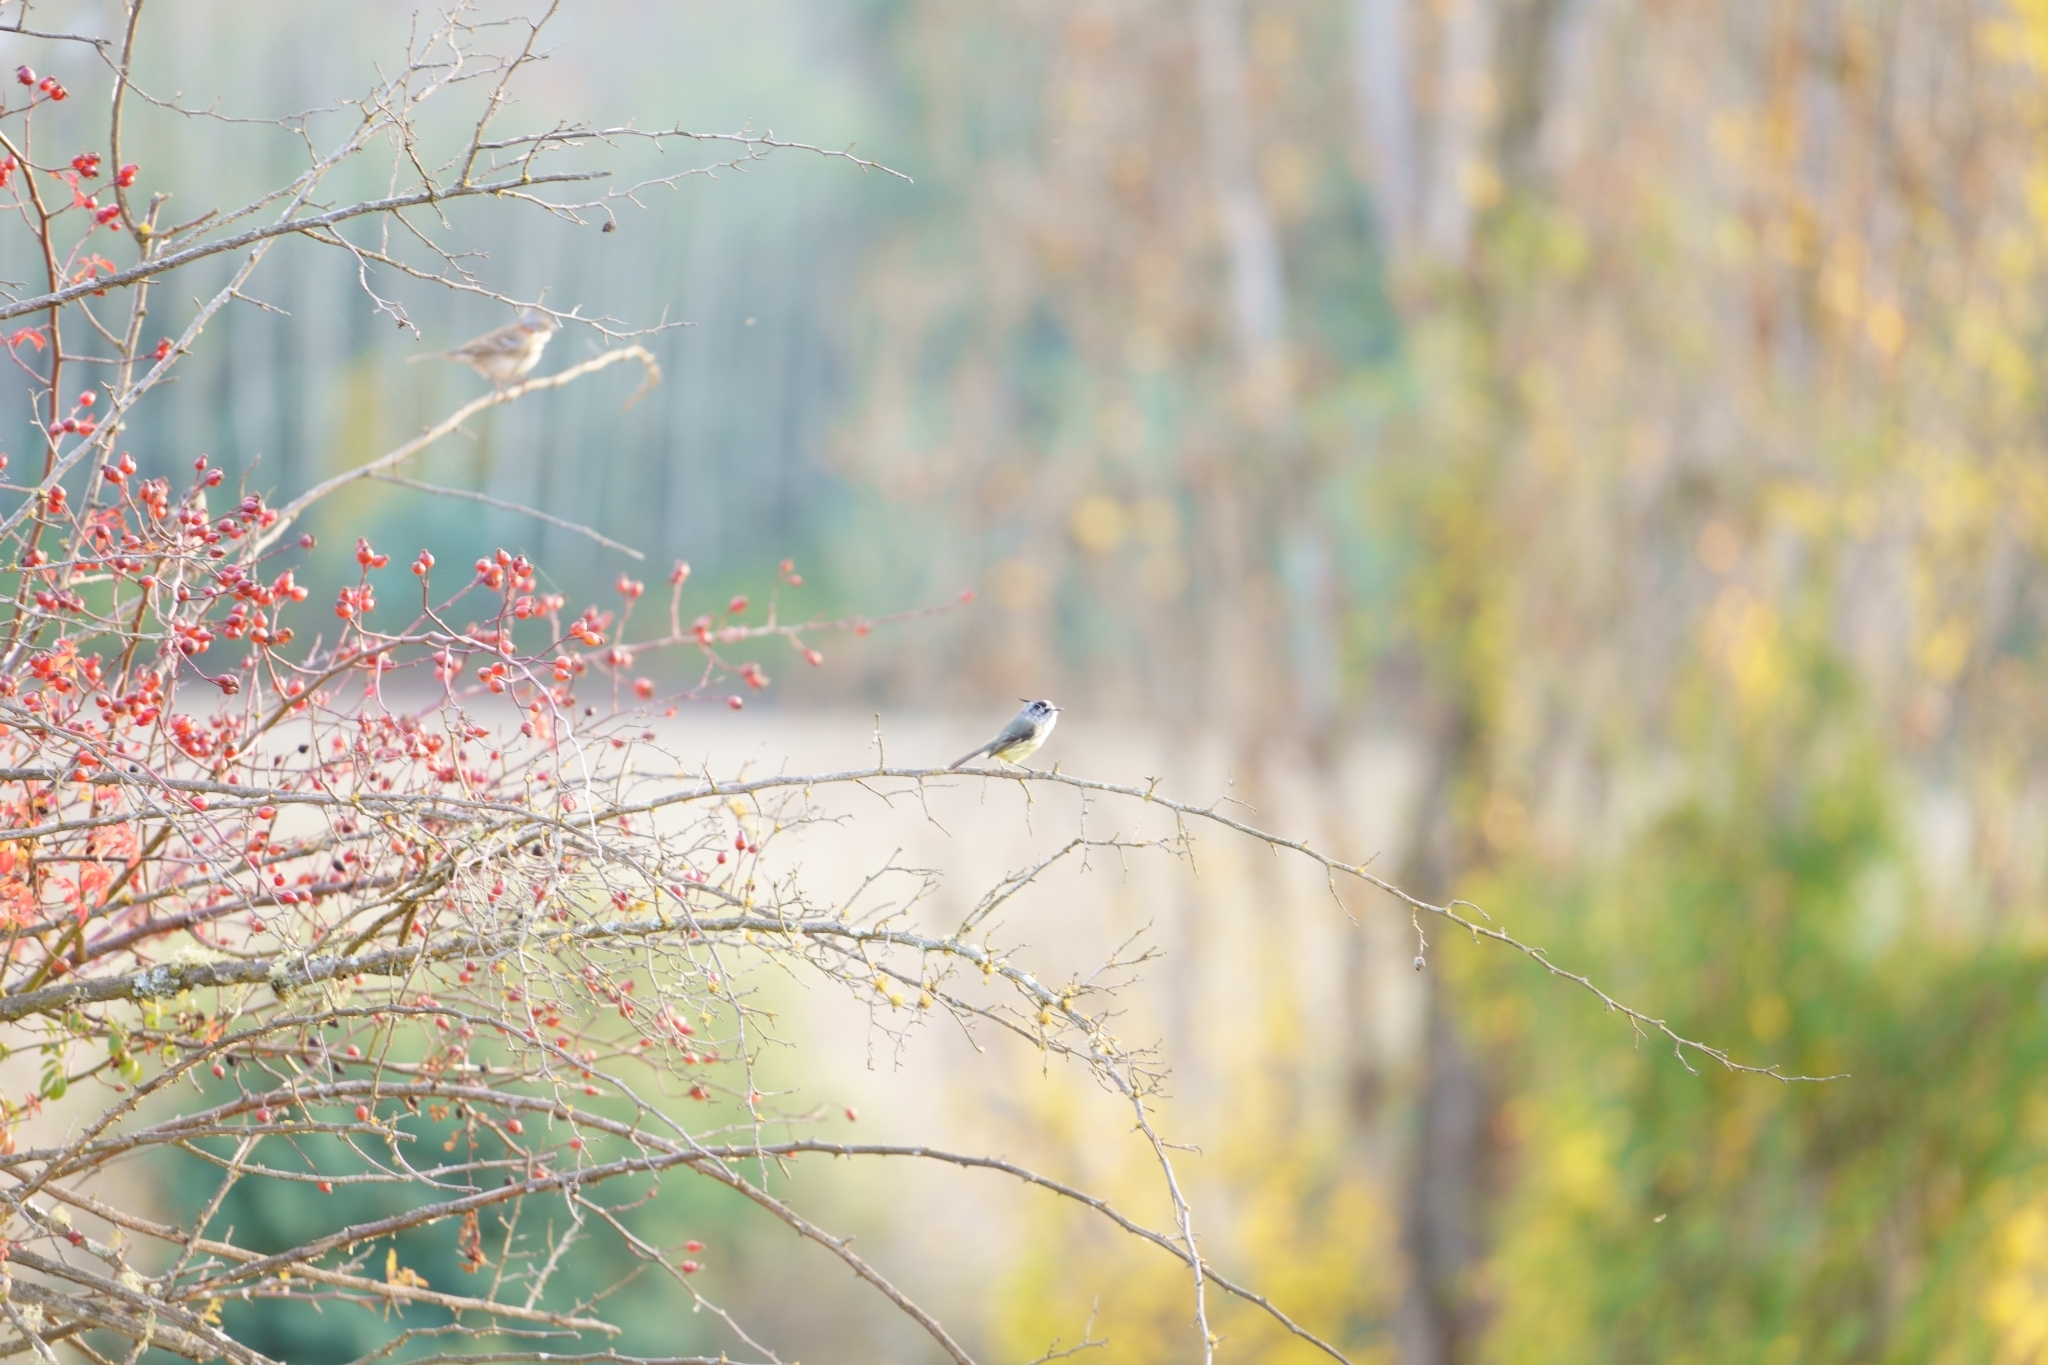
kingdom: Animalia
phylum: Chordata
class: Aves
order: Passeriformes
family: Tyrannidae
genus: Anairetes
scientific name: Anairetes parulus
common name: Tufted tit-tyrant
